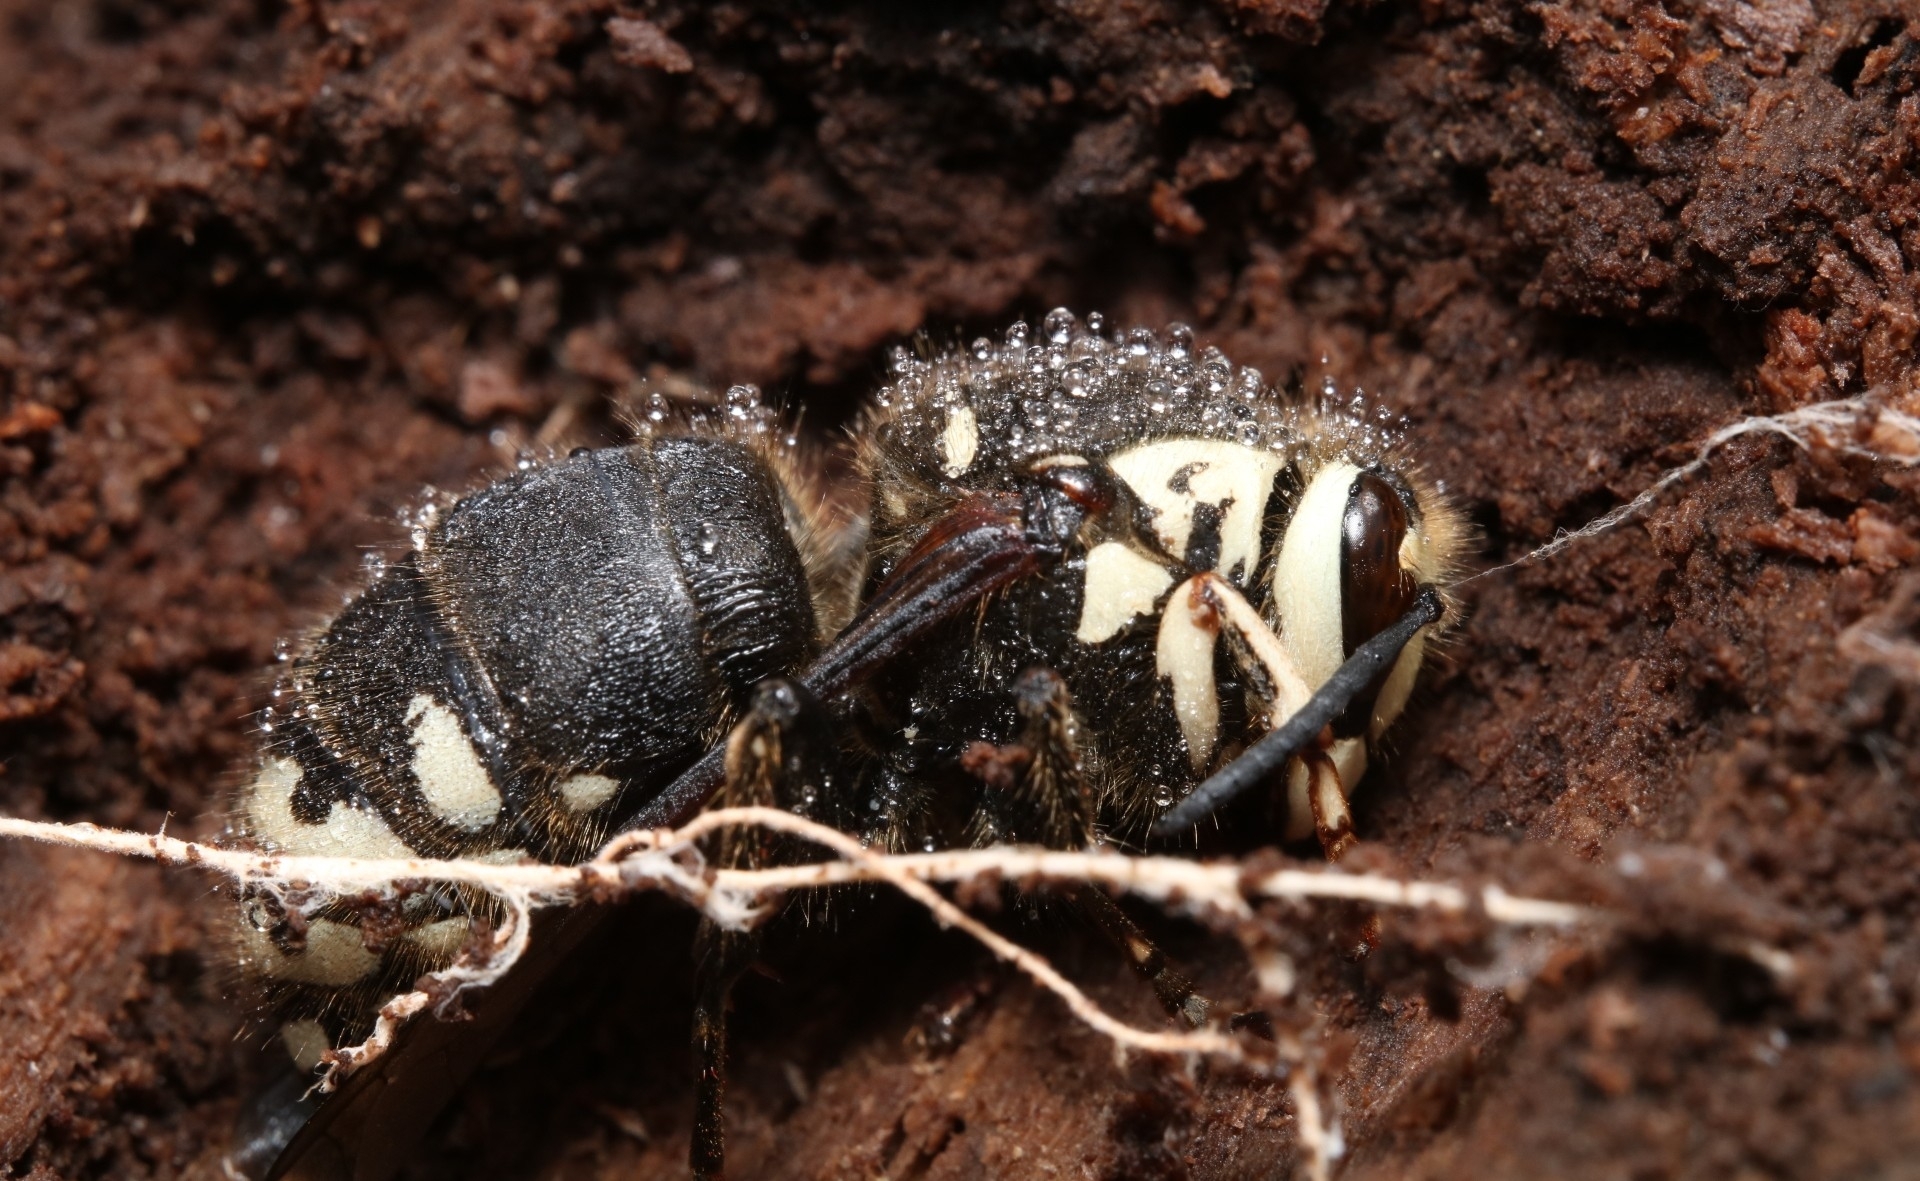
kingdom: Animalia
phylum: Arthropoda
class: Insecta
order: Hymenoptera
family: Vespidae
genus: Dolichovespula
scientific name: Dolichovespula maculata
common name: Bald-faced hornet
